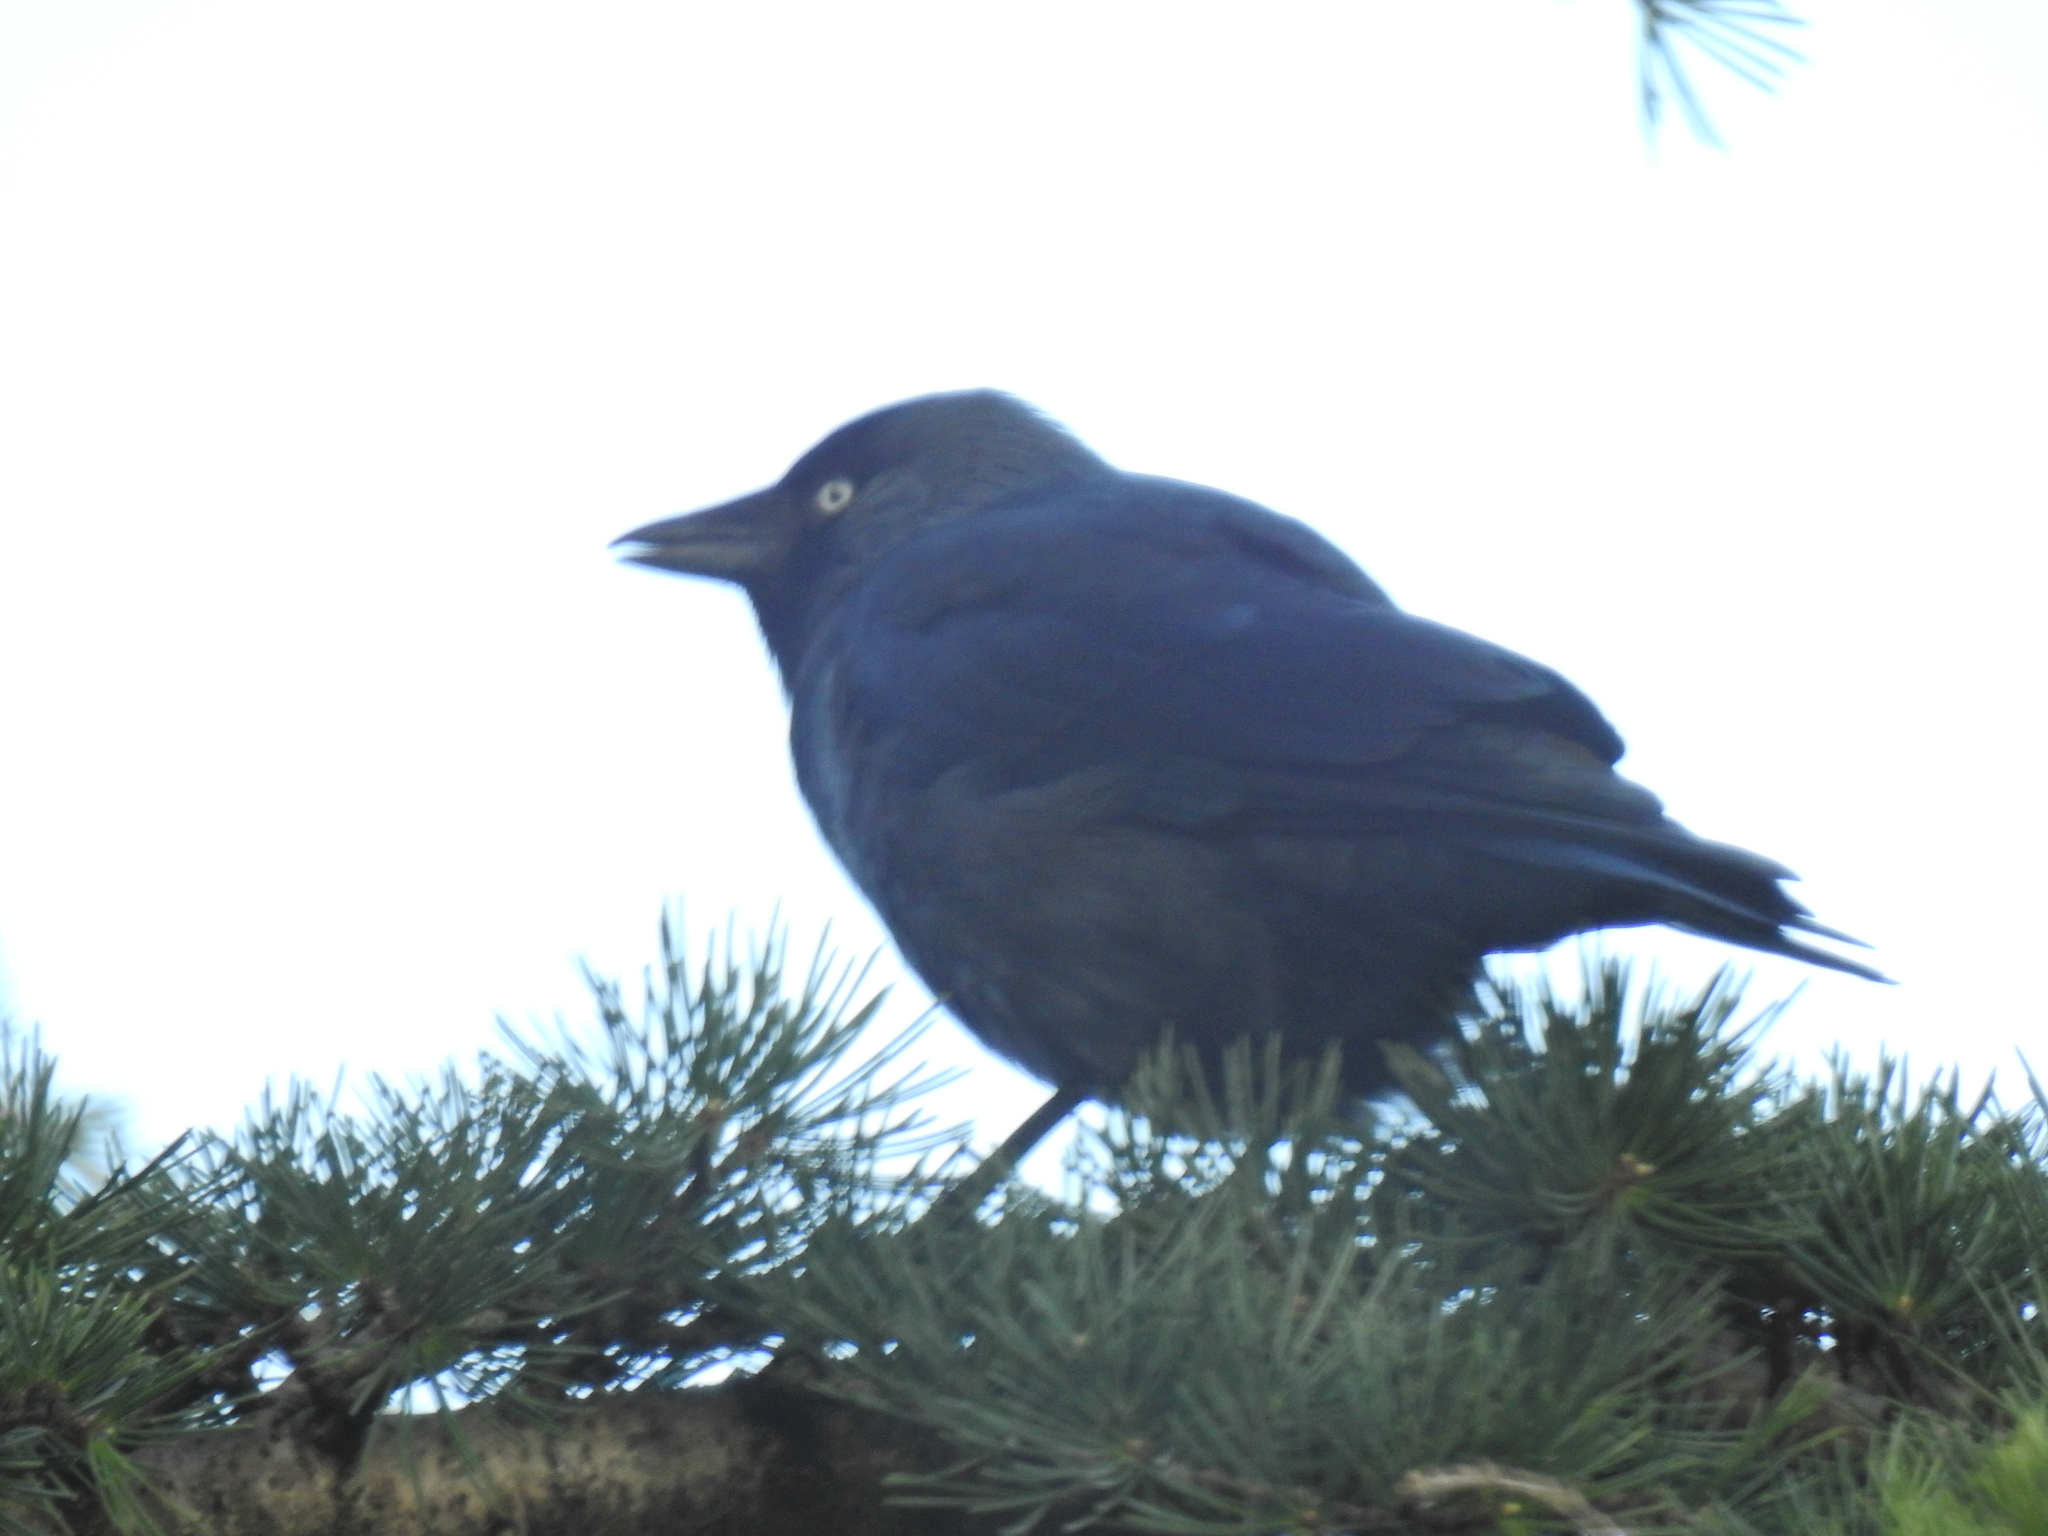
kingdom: Animalia
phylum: Chordata
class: Aves
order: Passeriformes
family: Corvidae
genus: Coloeus
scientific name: Coloeus monedula
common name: Western jackdaw
